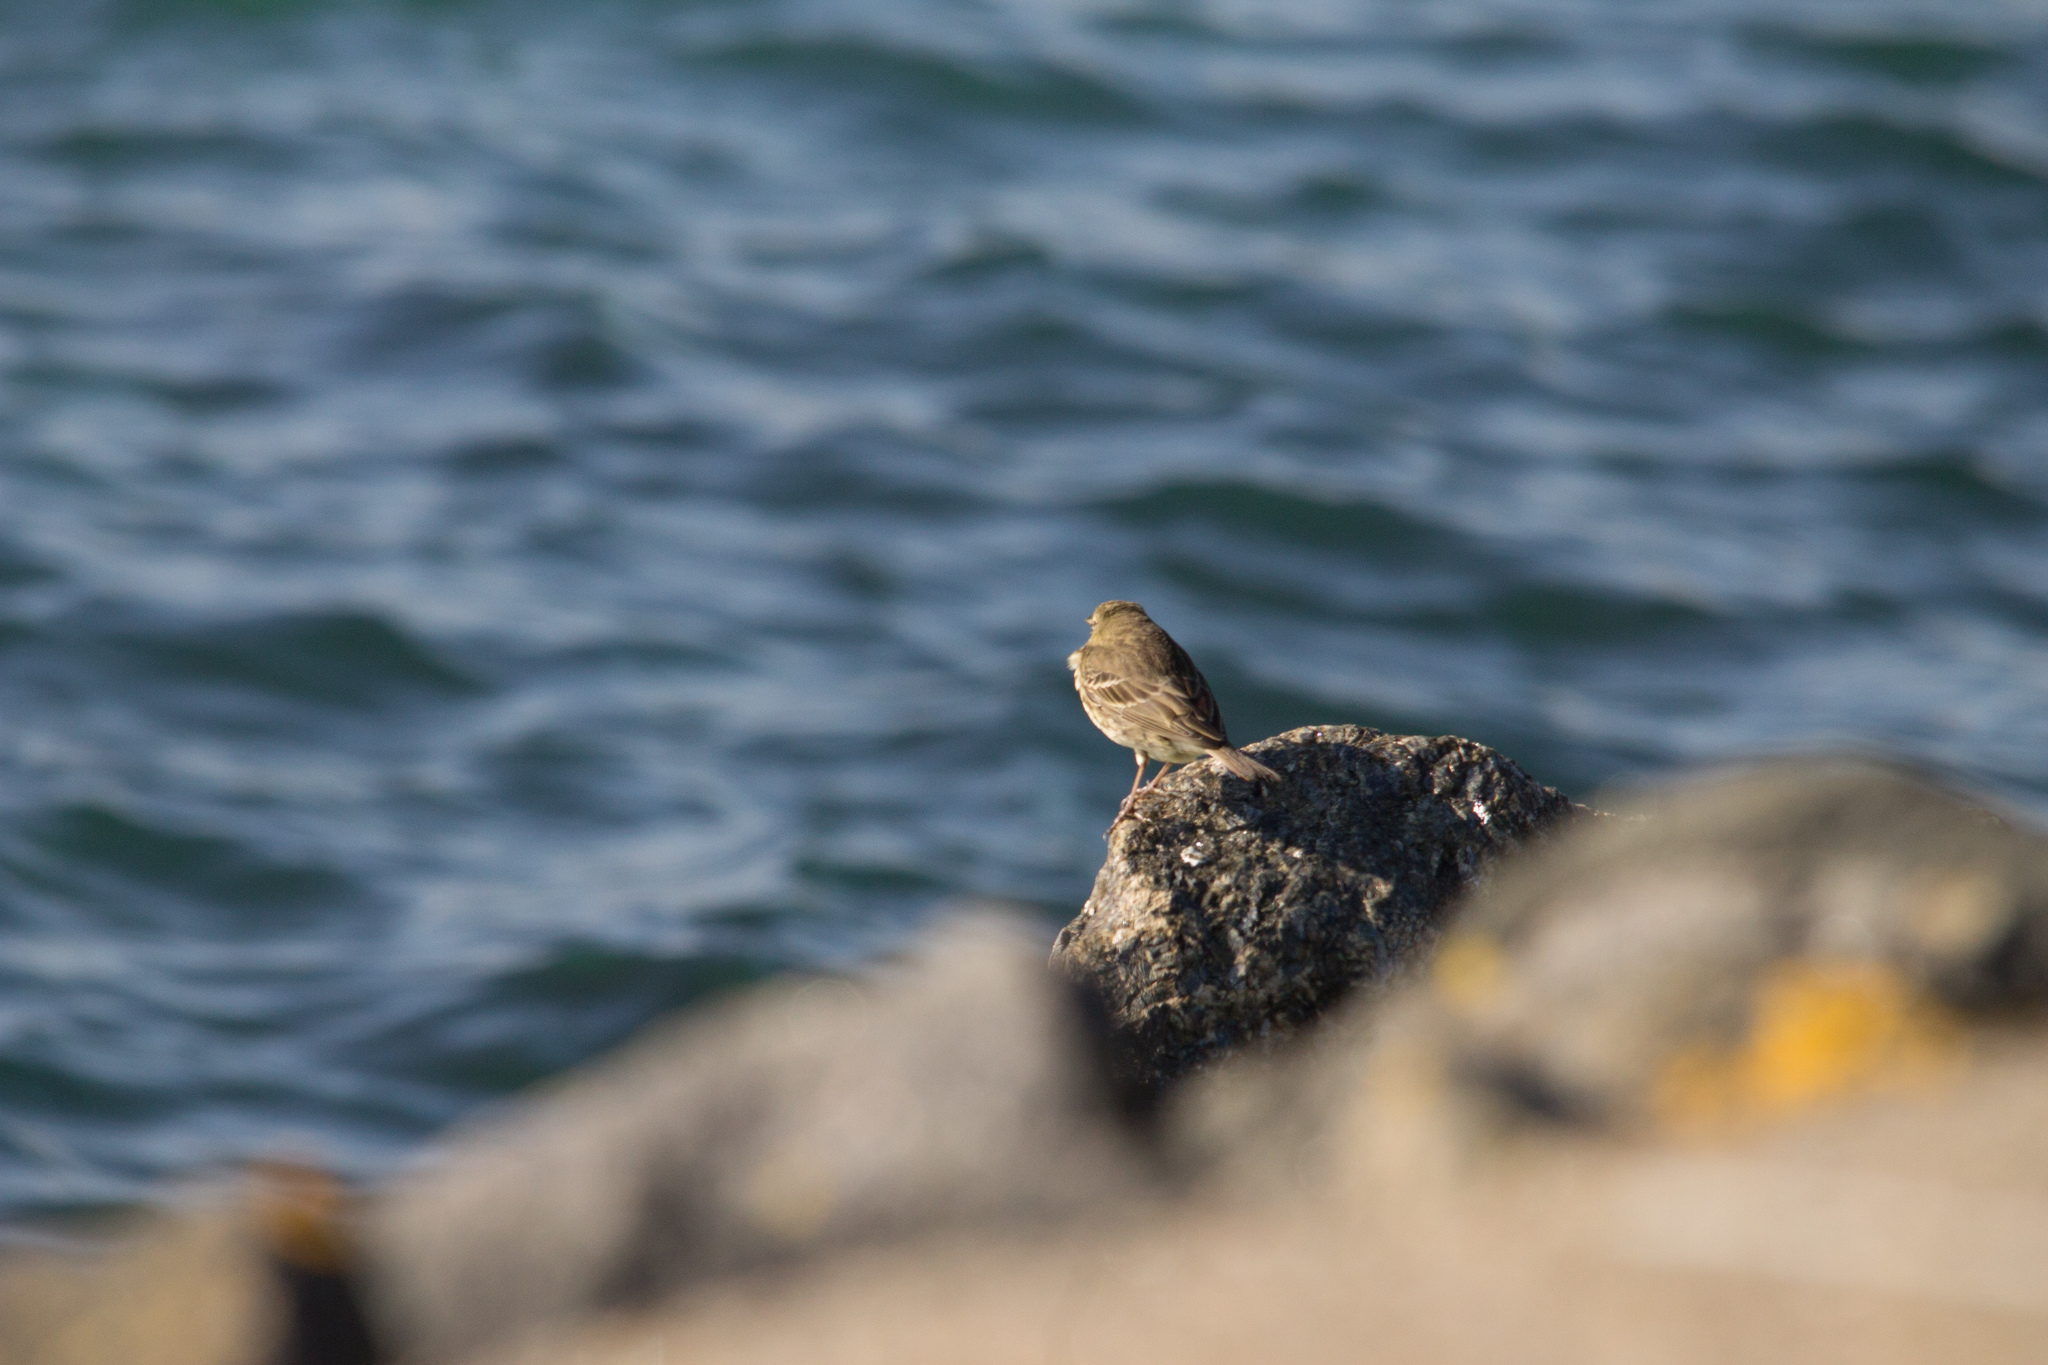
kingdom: Animalia
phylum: Chordata
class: Aves
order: Passeriformes
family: Motacillidae
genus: Anthus
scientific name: Anthus petrosus
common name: Eurasian rock pipit
